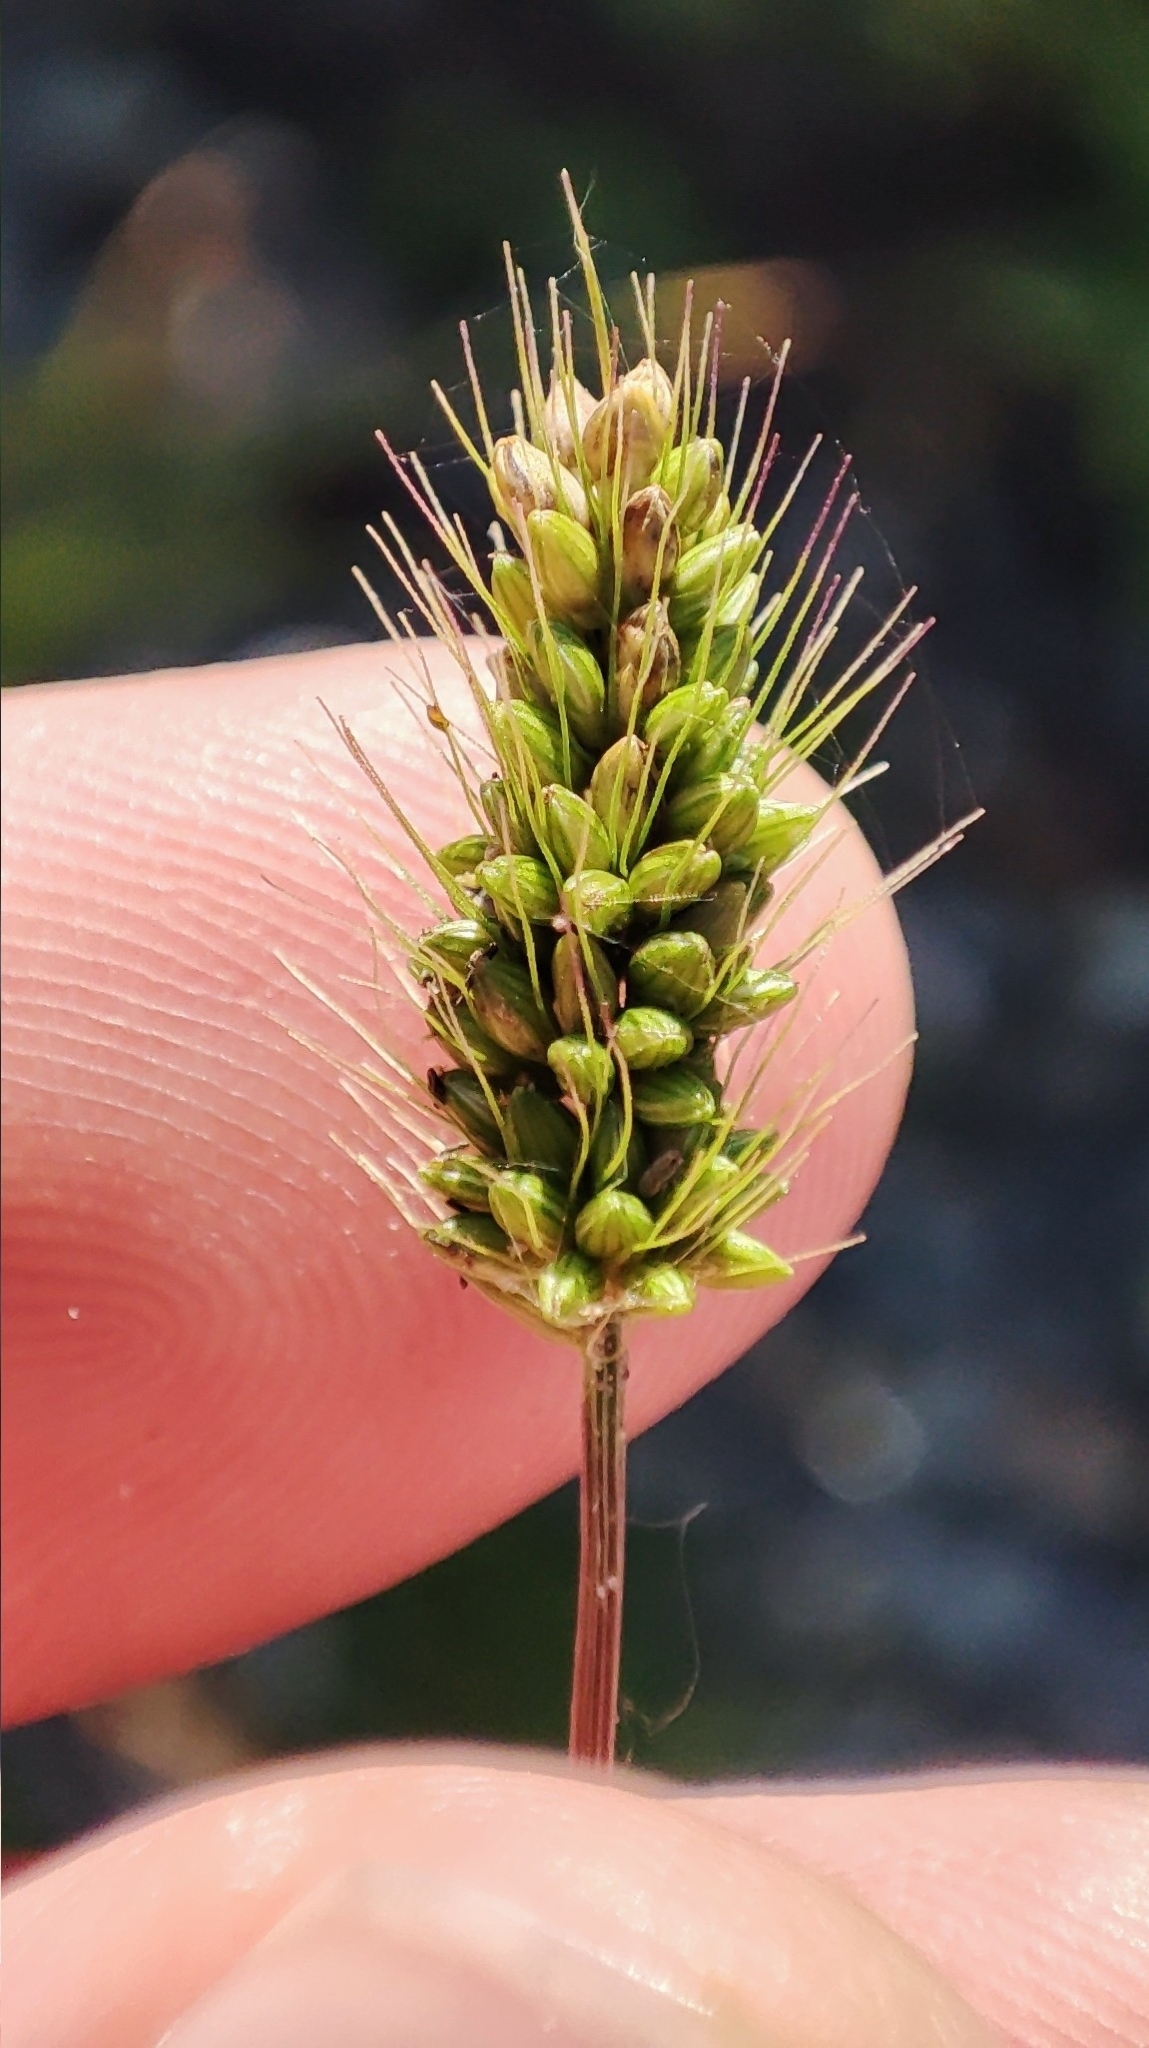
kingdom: Plantae
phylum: Tracheophyta
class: Liliopsida
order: Poales
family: Poaceae
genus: Setaria
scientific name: Setaria viridis
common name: Green bristlegrass
